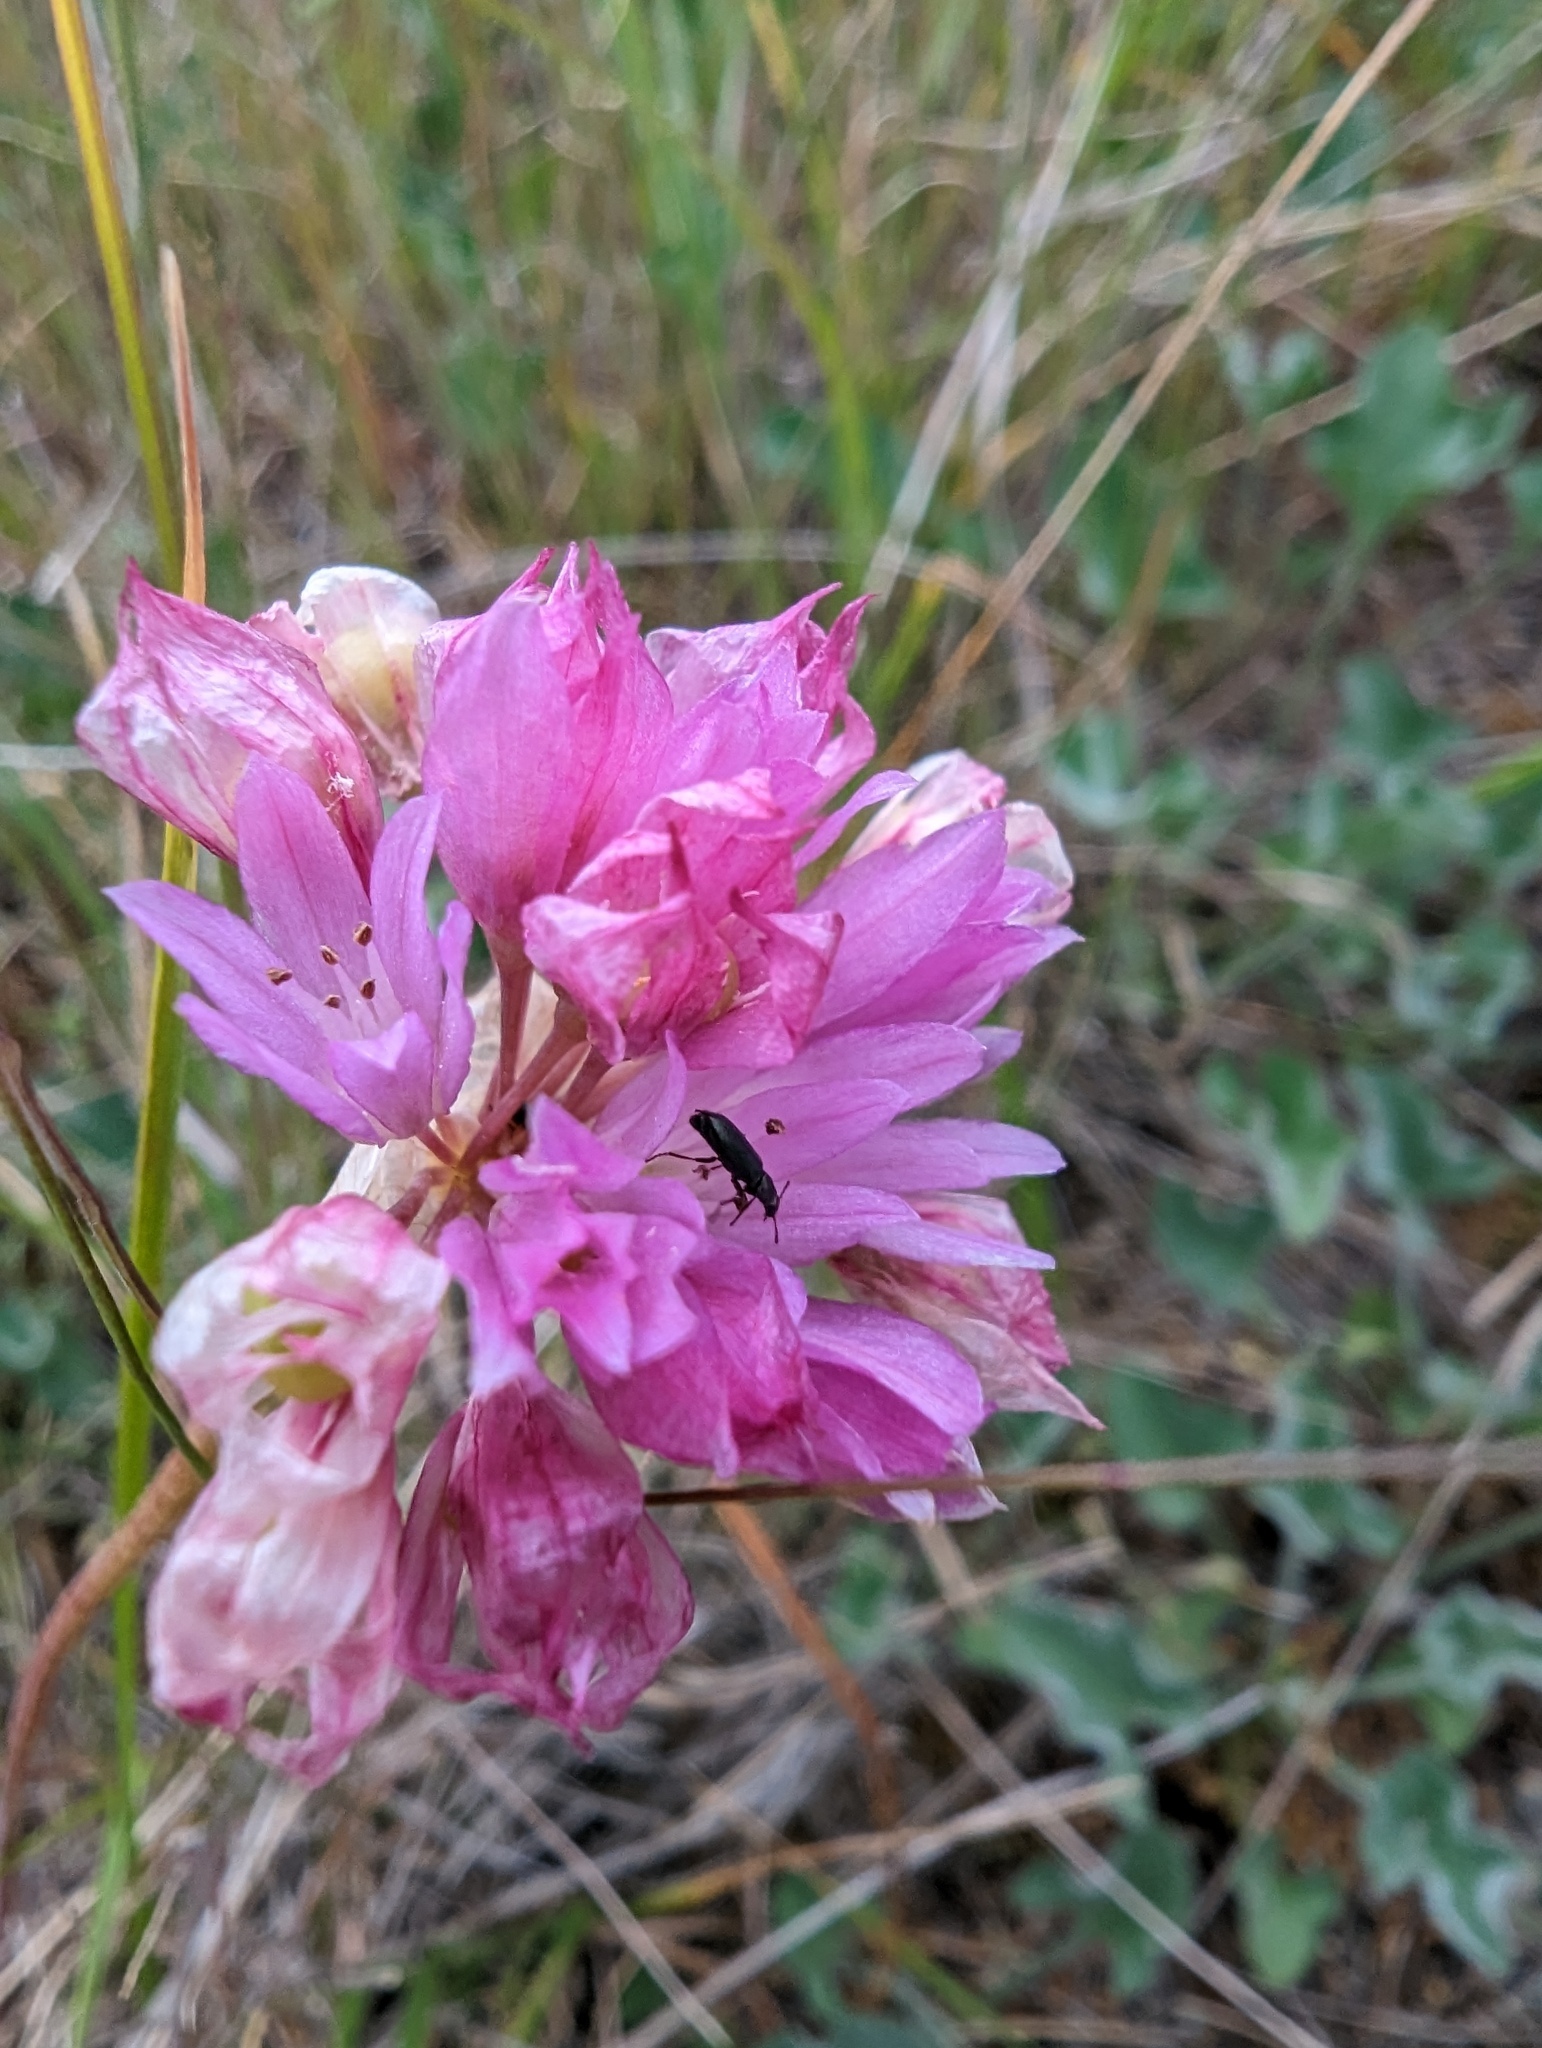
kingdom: Plantae
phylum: Tracheophyta
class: Liliopsida
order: Asparagales
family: Amaryllidaceae
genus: Allium
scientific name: Allium serra
